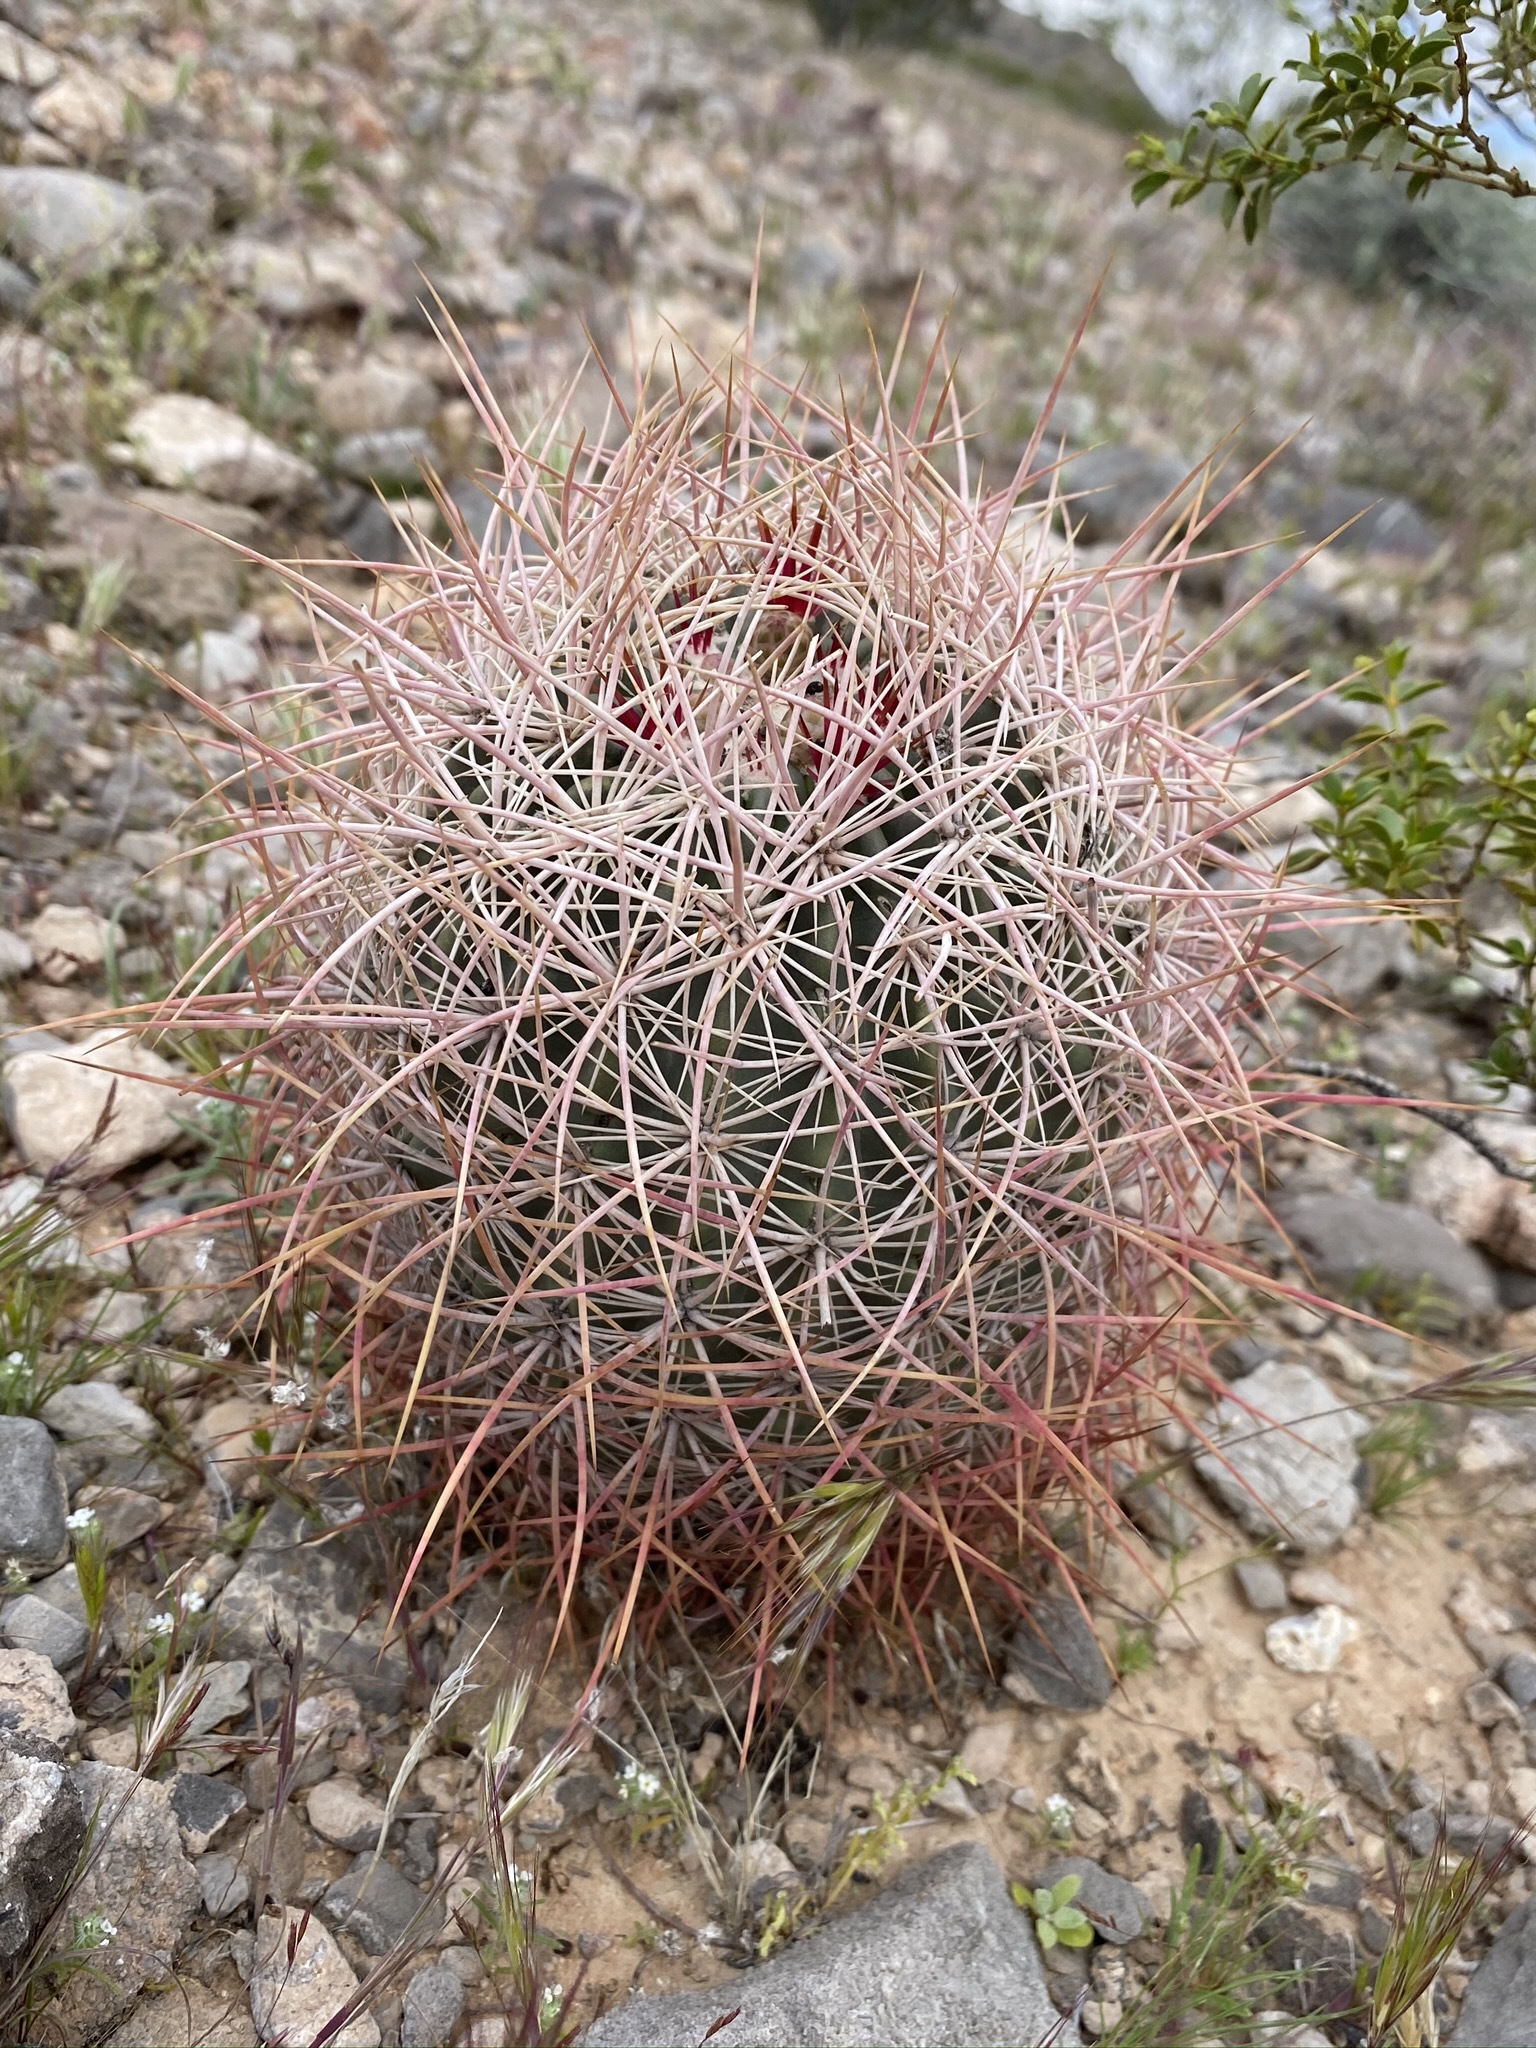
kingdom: Plantae
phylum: Tracheophyta
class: Magnoliopsida
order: Caryophyllales
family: Cactaceae
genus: Sclerocactus
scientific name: Sclerocactus johnsonii
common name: Eight-spine fishhook cactus
